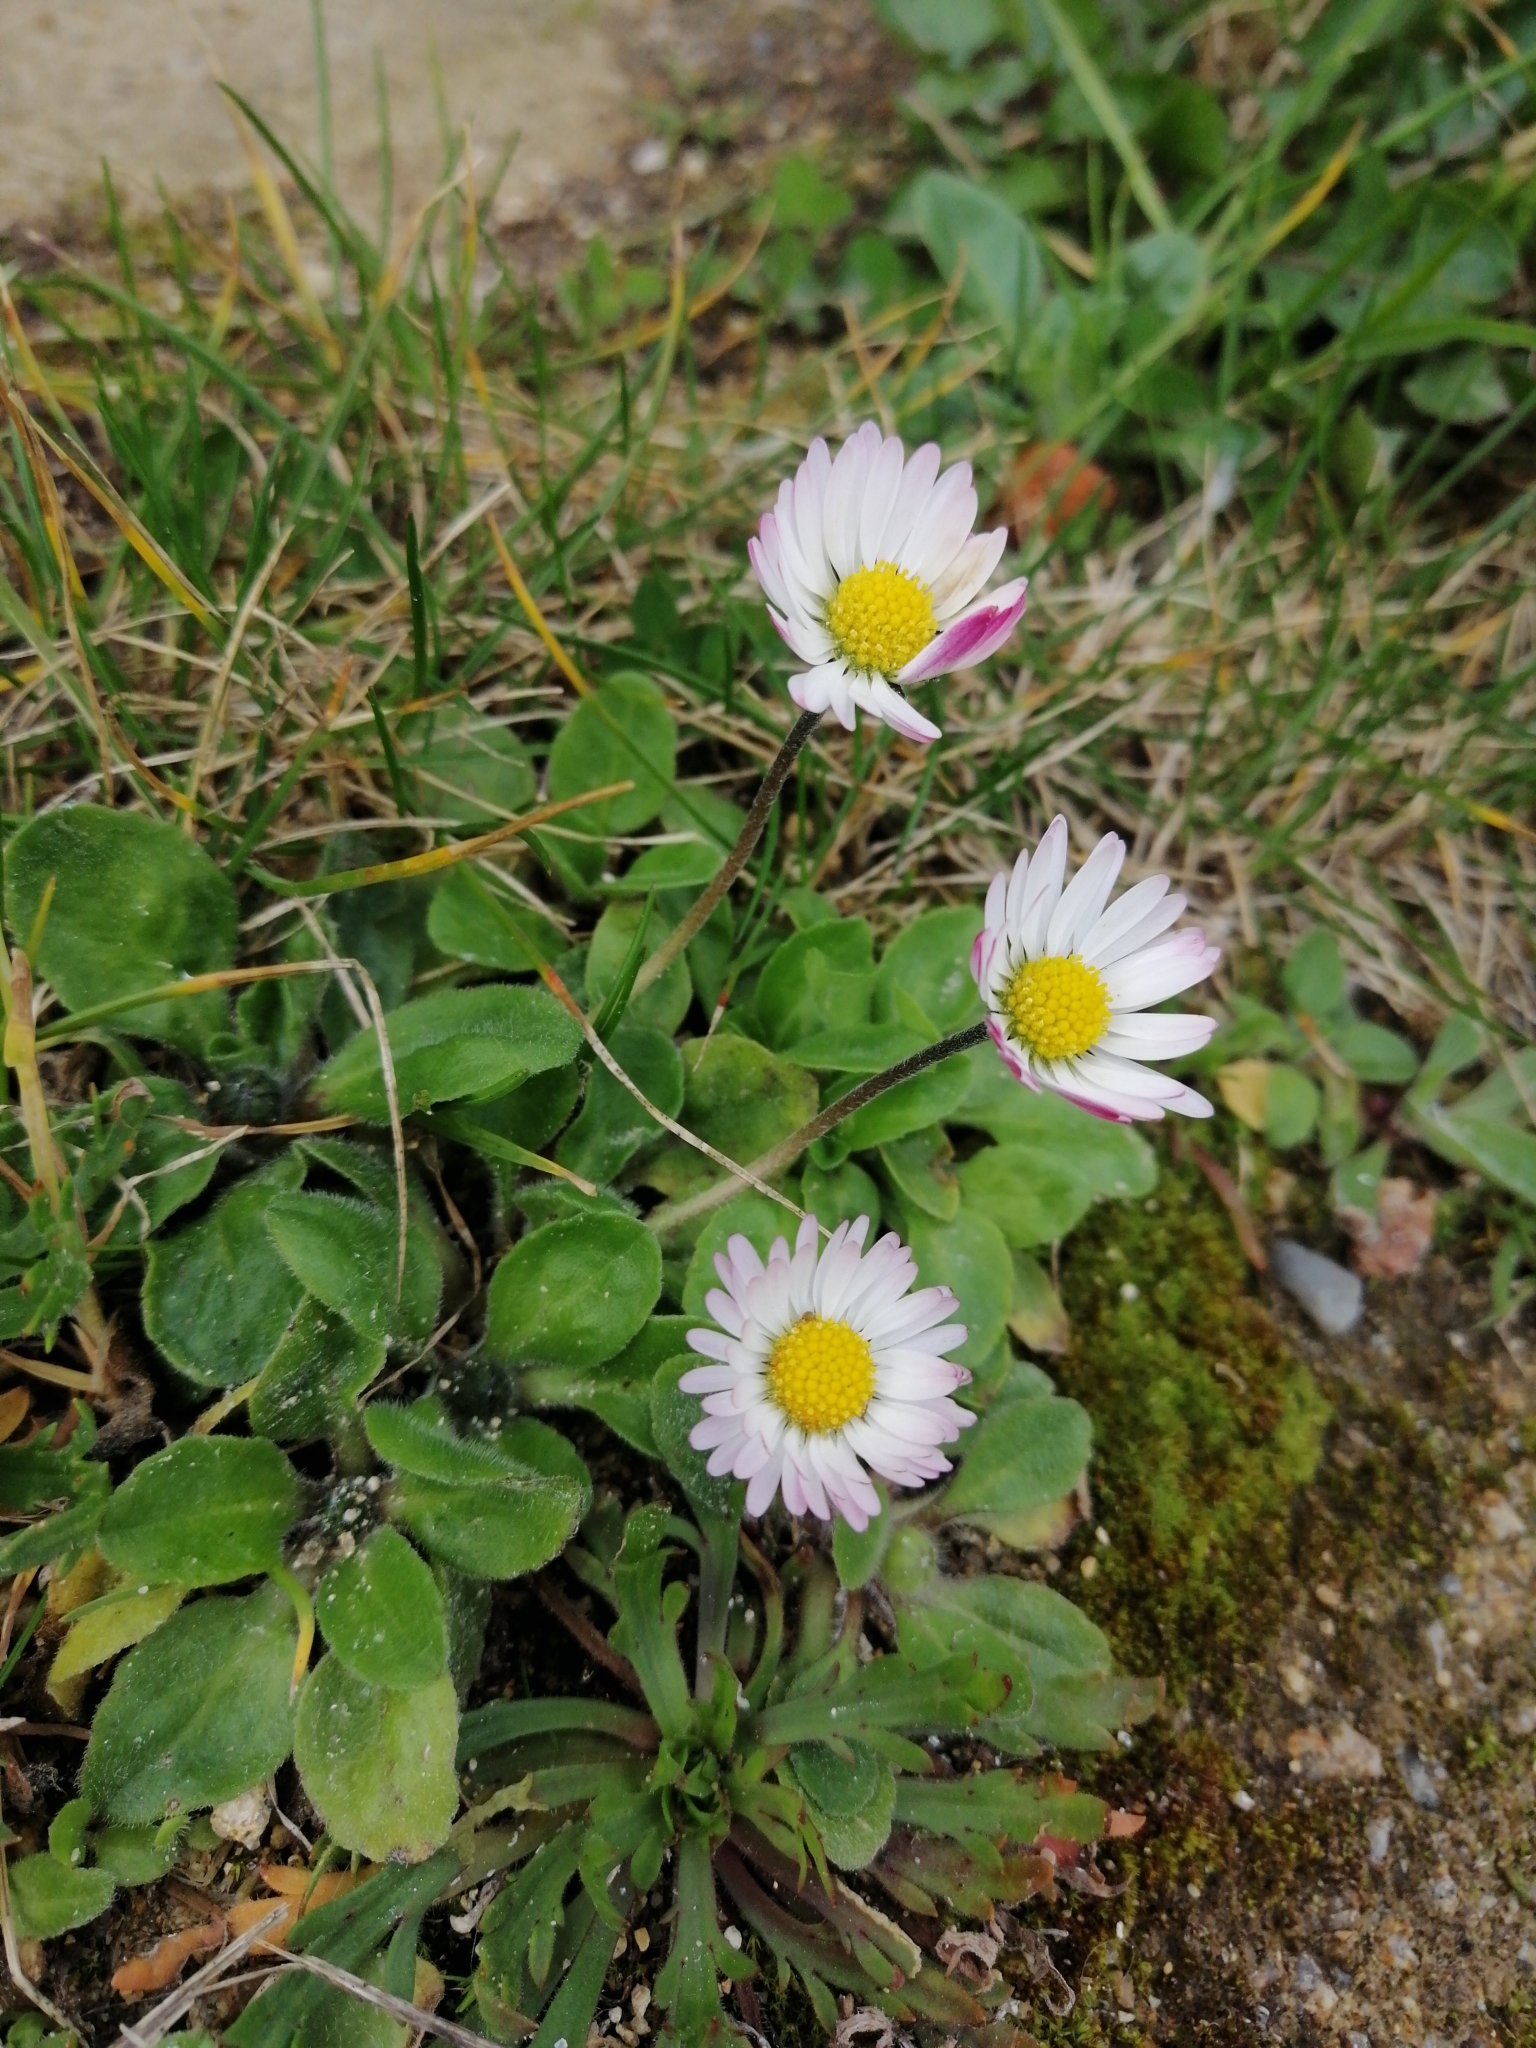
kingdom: Plantae
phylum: Tracheophyta
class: Magnoliopsida
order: Asterales
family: Asteraceae
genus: Bellis
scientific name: Bellis perennis
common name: Lawndaisy
